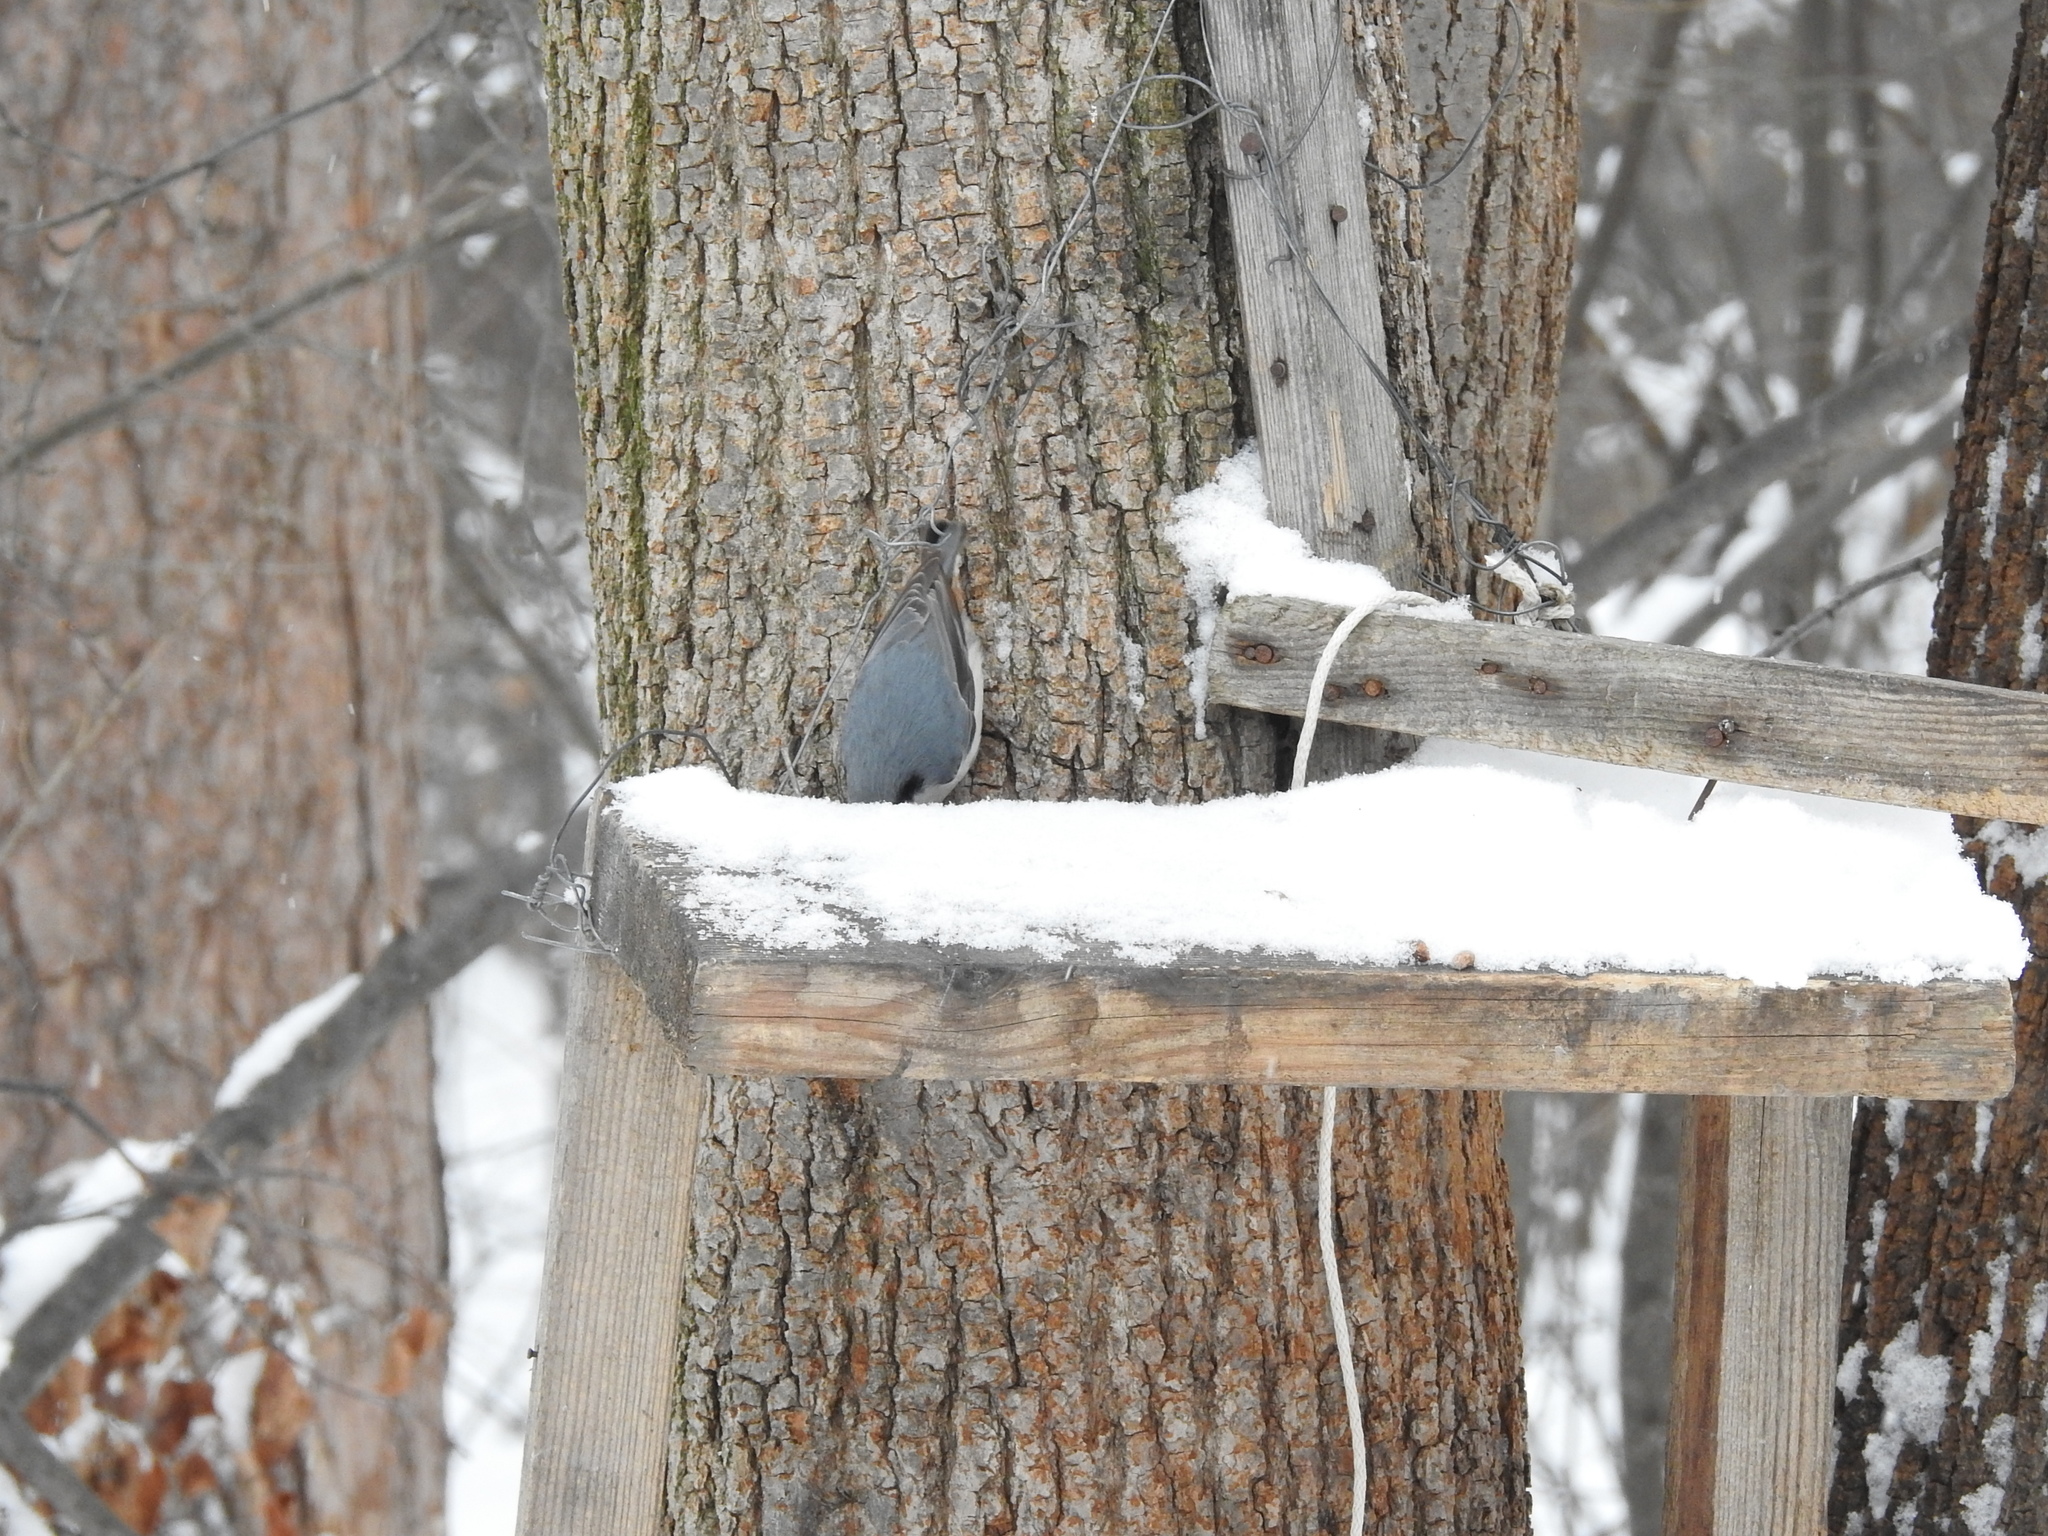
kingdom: Animalia
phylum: Chordata
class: Aves
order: Passeriformes
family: Sittidae
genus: Sitta
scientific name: Sitta europaea
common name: Eurasian nuthatch
